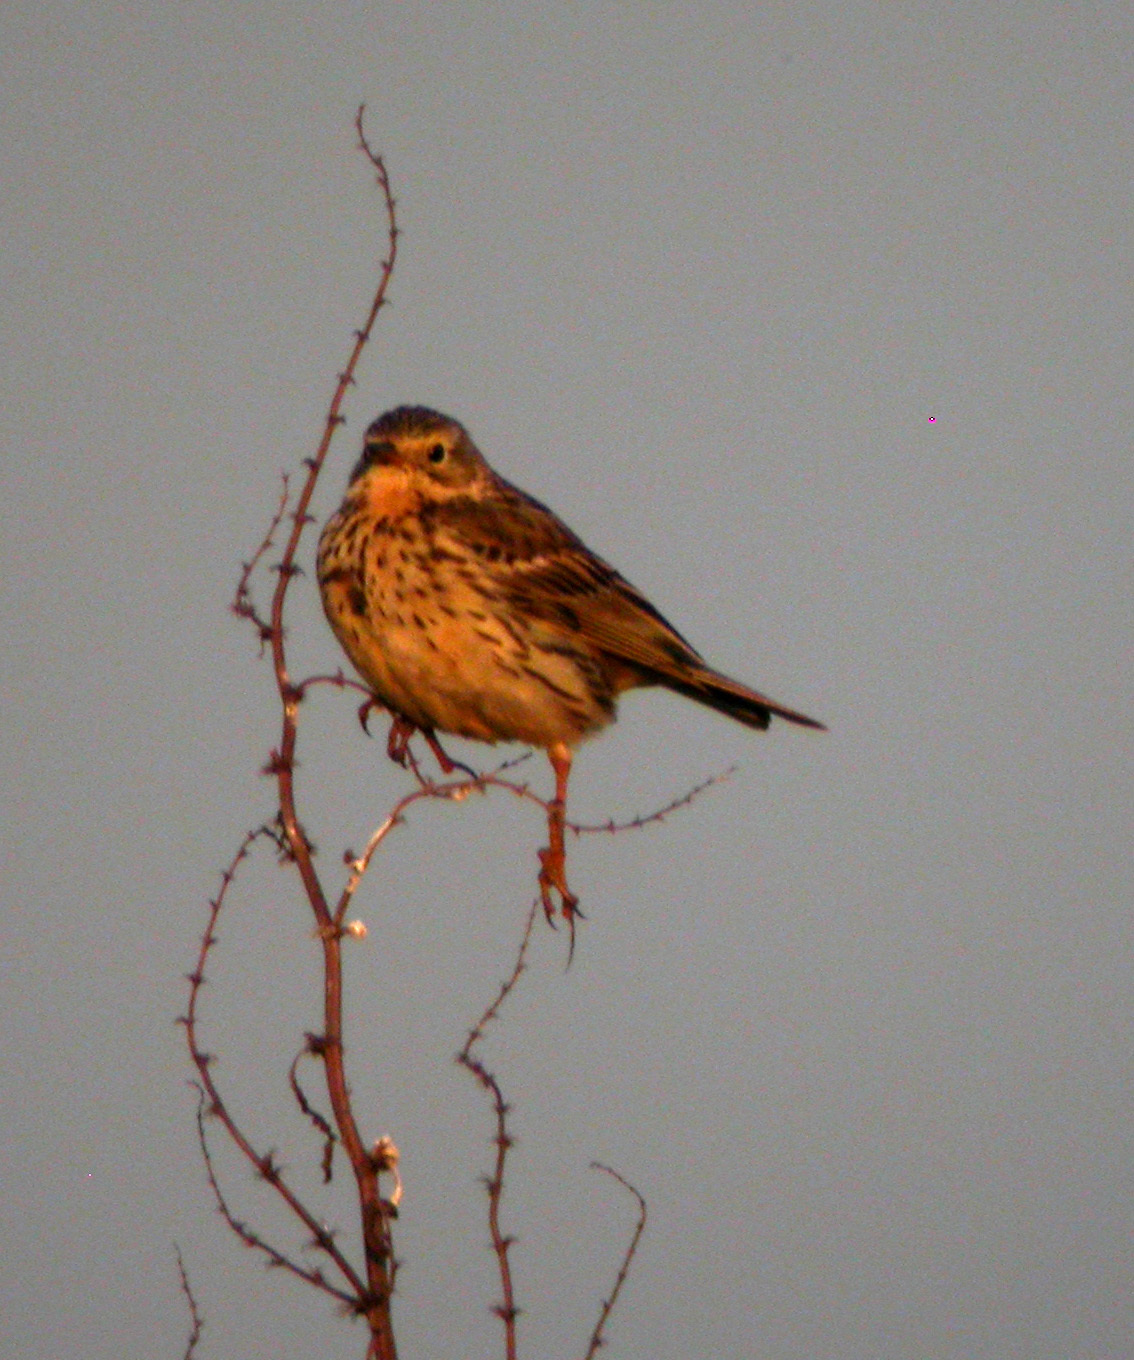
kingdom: Animalia
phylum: Chordata
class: Aves
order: Passeriformes
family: Motacillidae
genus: Anthus
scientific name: Anthus pratensis
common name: Meadow pipit
